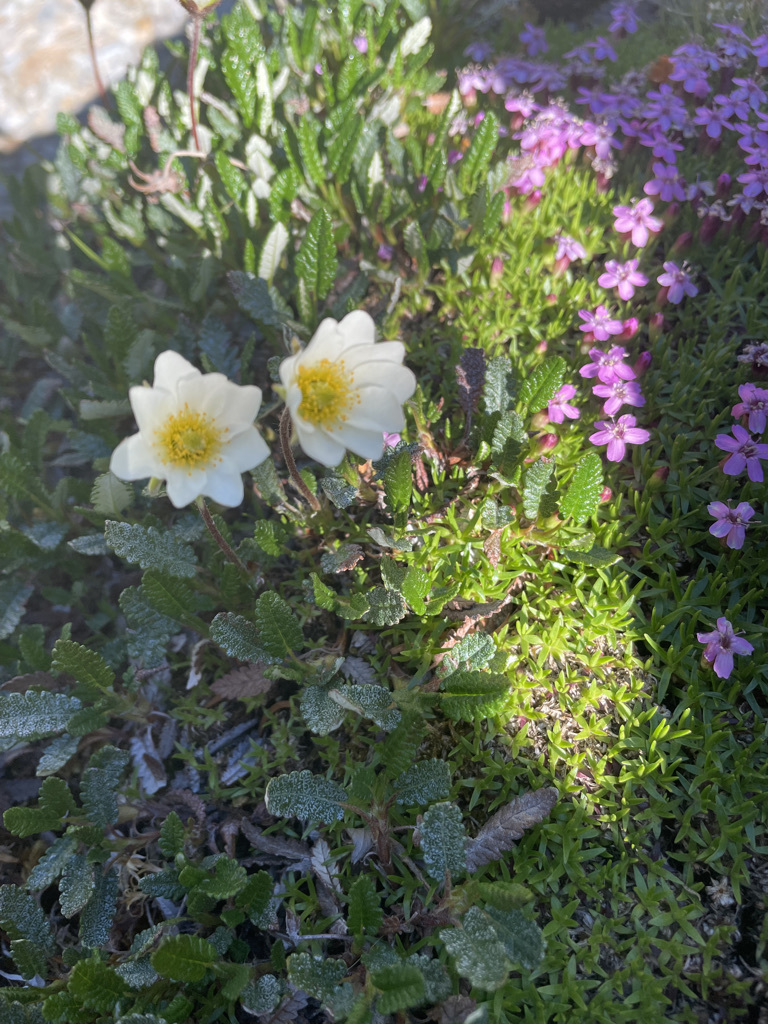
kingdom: Plantae
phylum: Tracheophyta
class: Magnoliopsida
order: Rosales
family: Rosaceae
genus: Dryas
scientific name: Dryas octopetala
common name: Eight-petal mountain-avens
